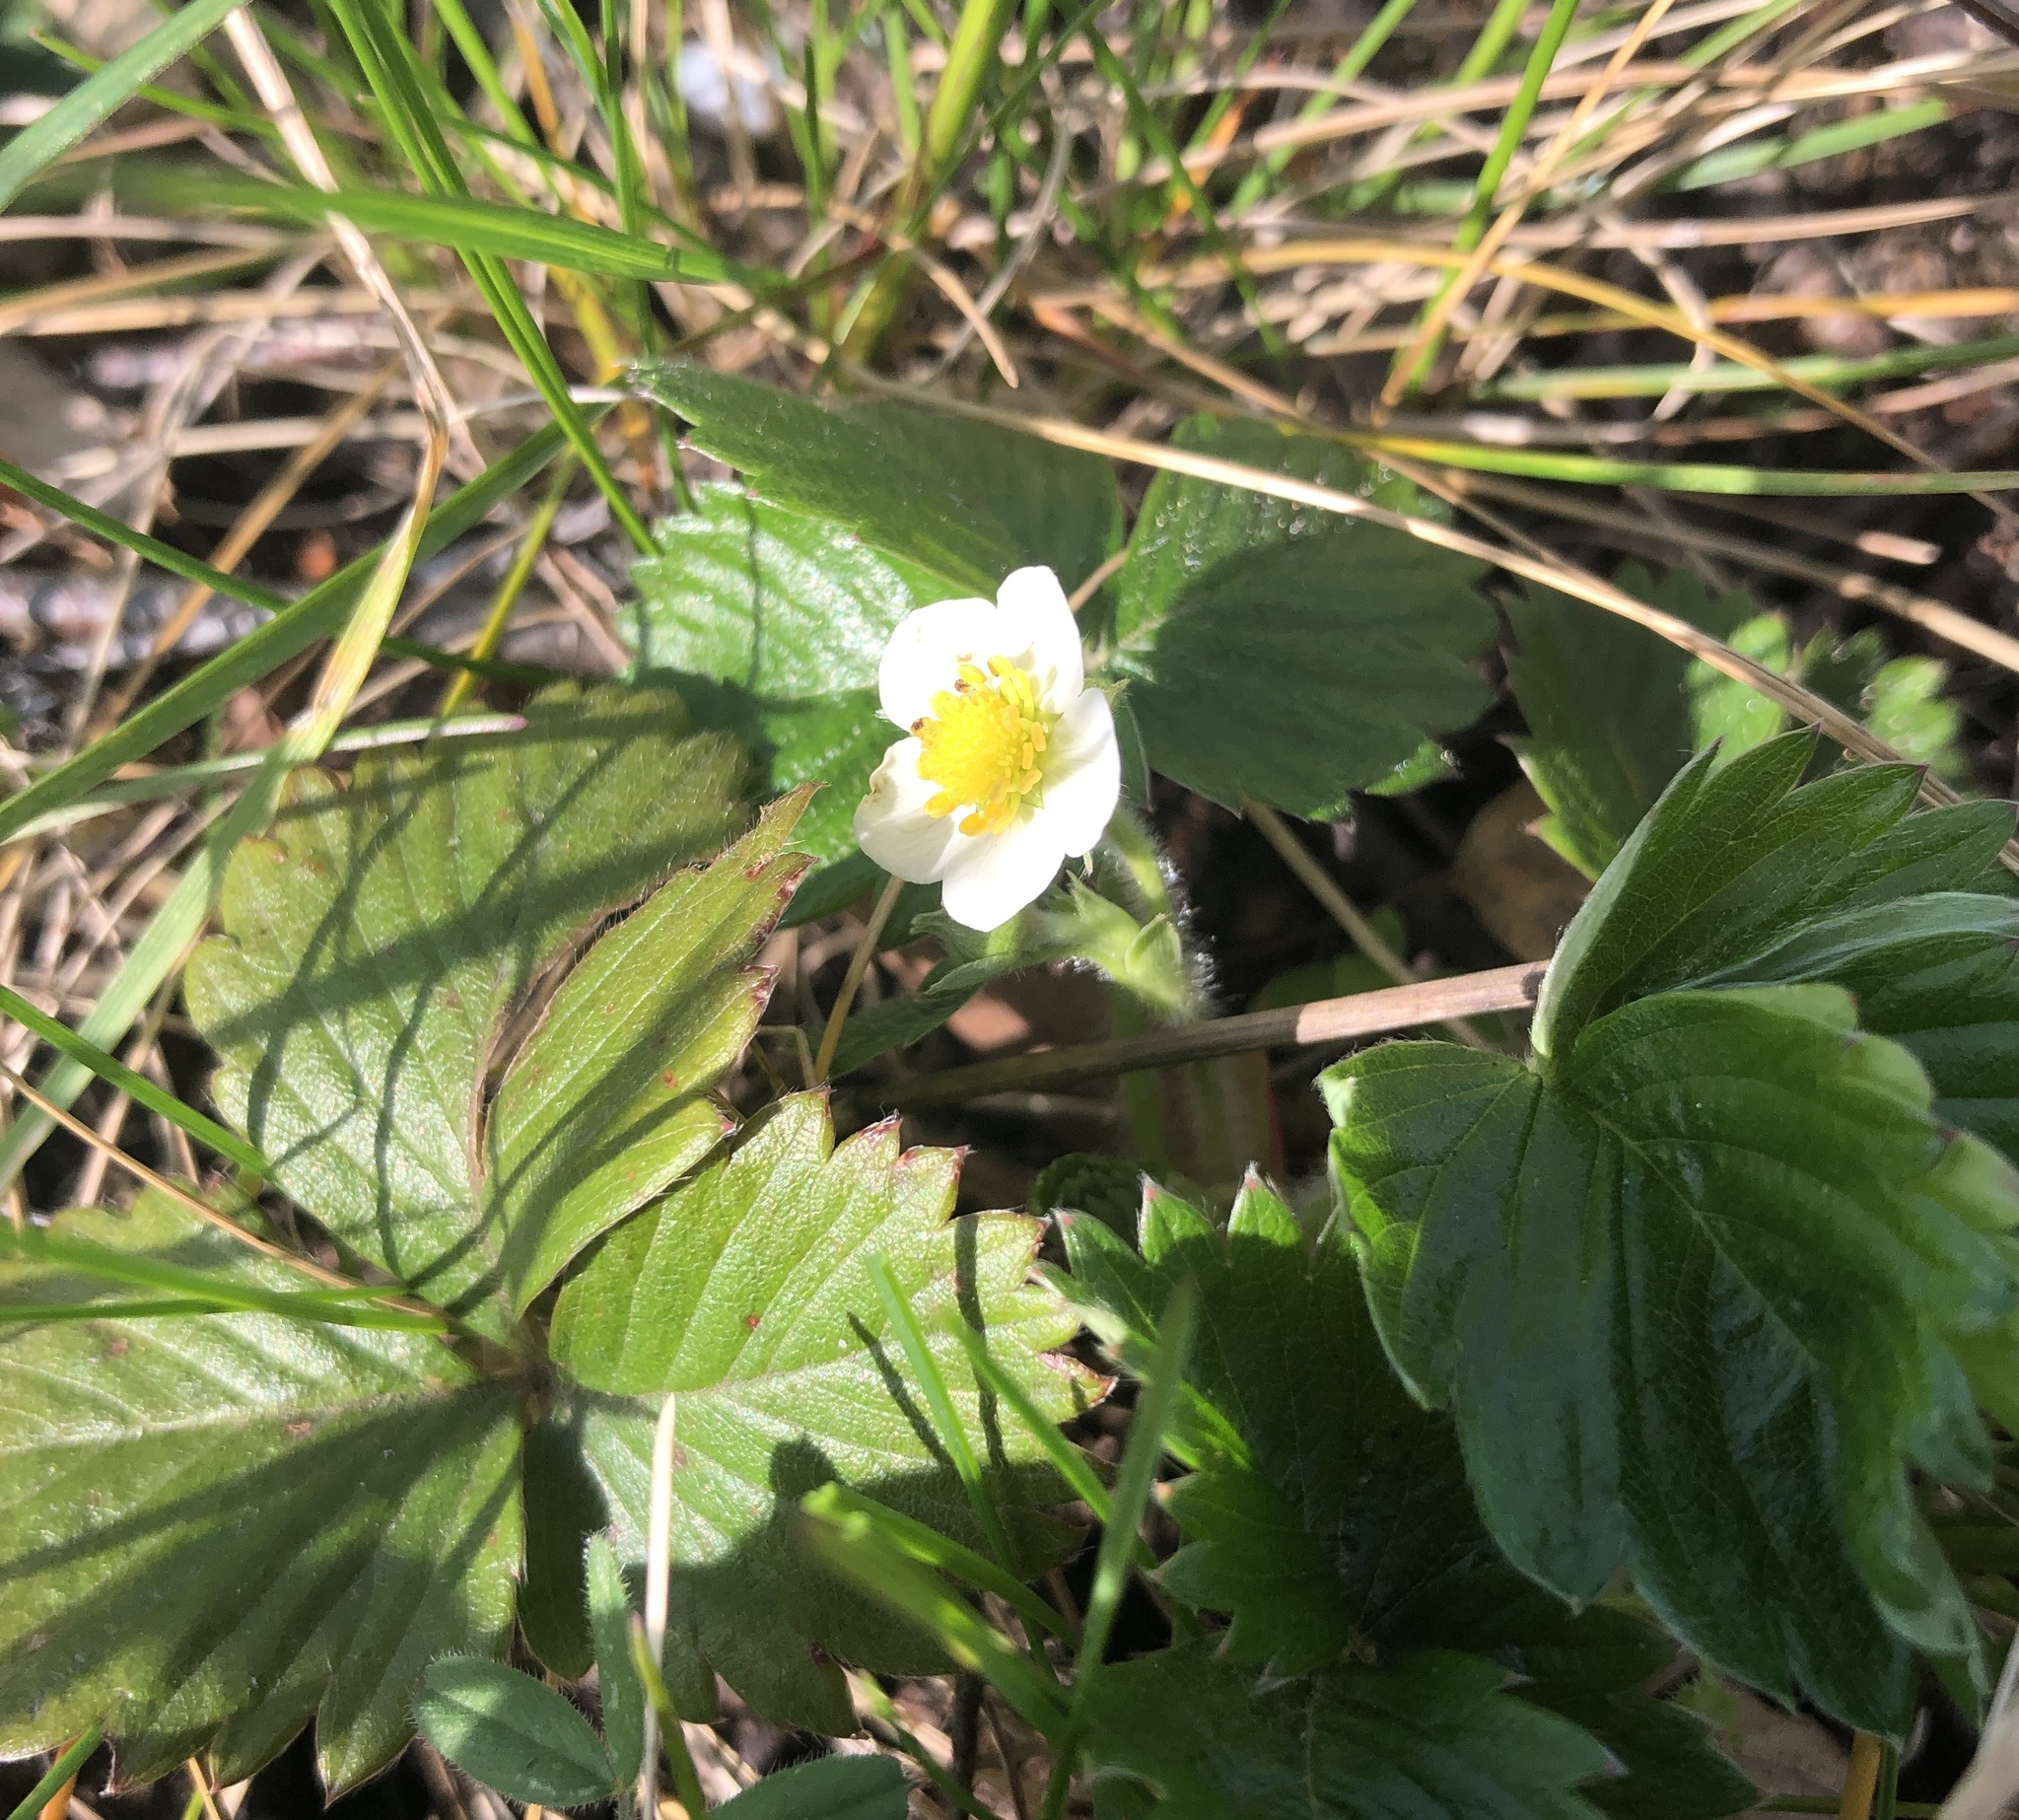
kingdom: Plantae
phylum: Tracheophyta
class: Magnoliopsida
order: Rosales
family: Rosaceae
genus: Fragaria
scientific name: Fragaria vesca
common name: Wild strawberry
